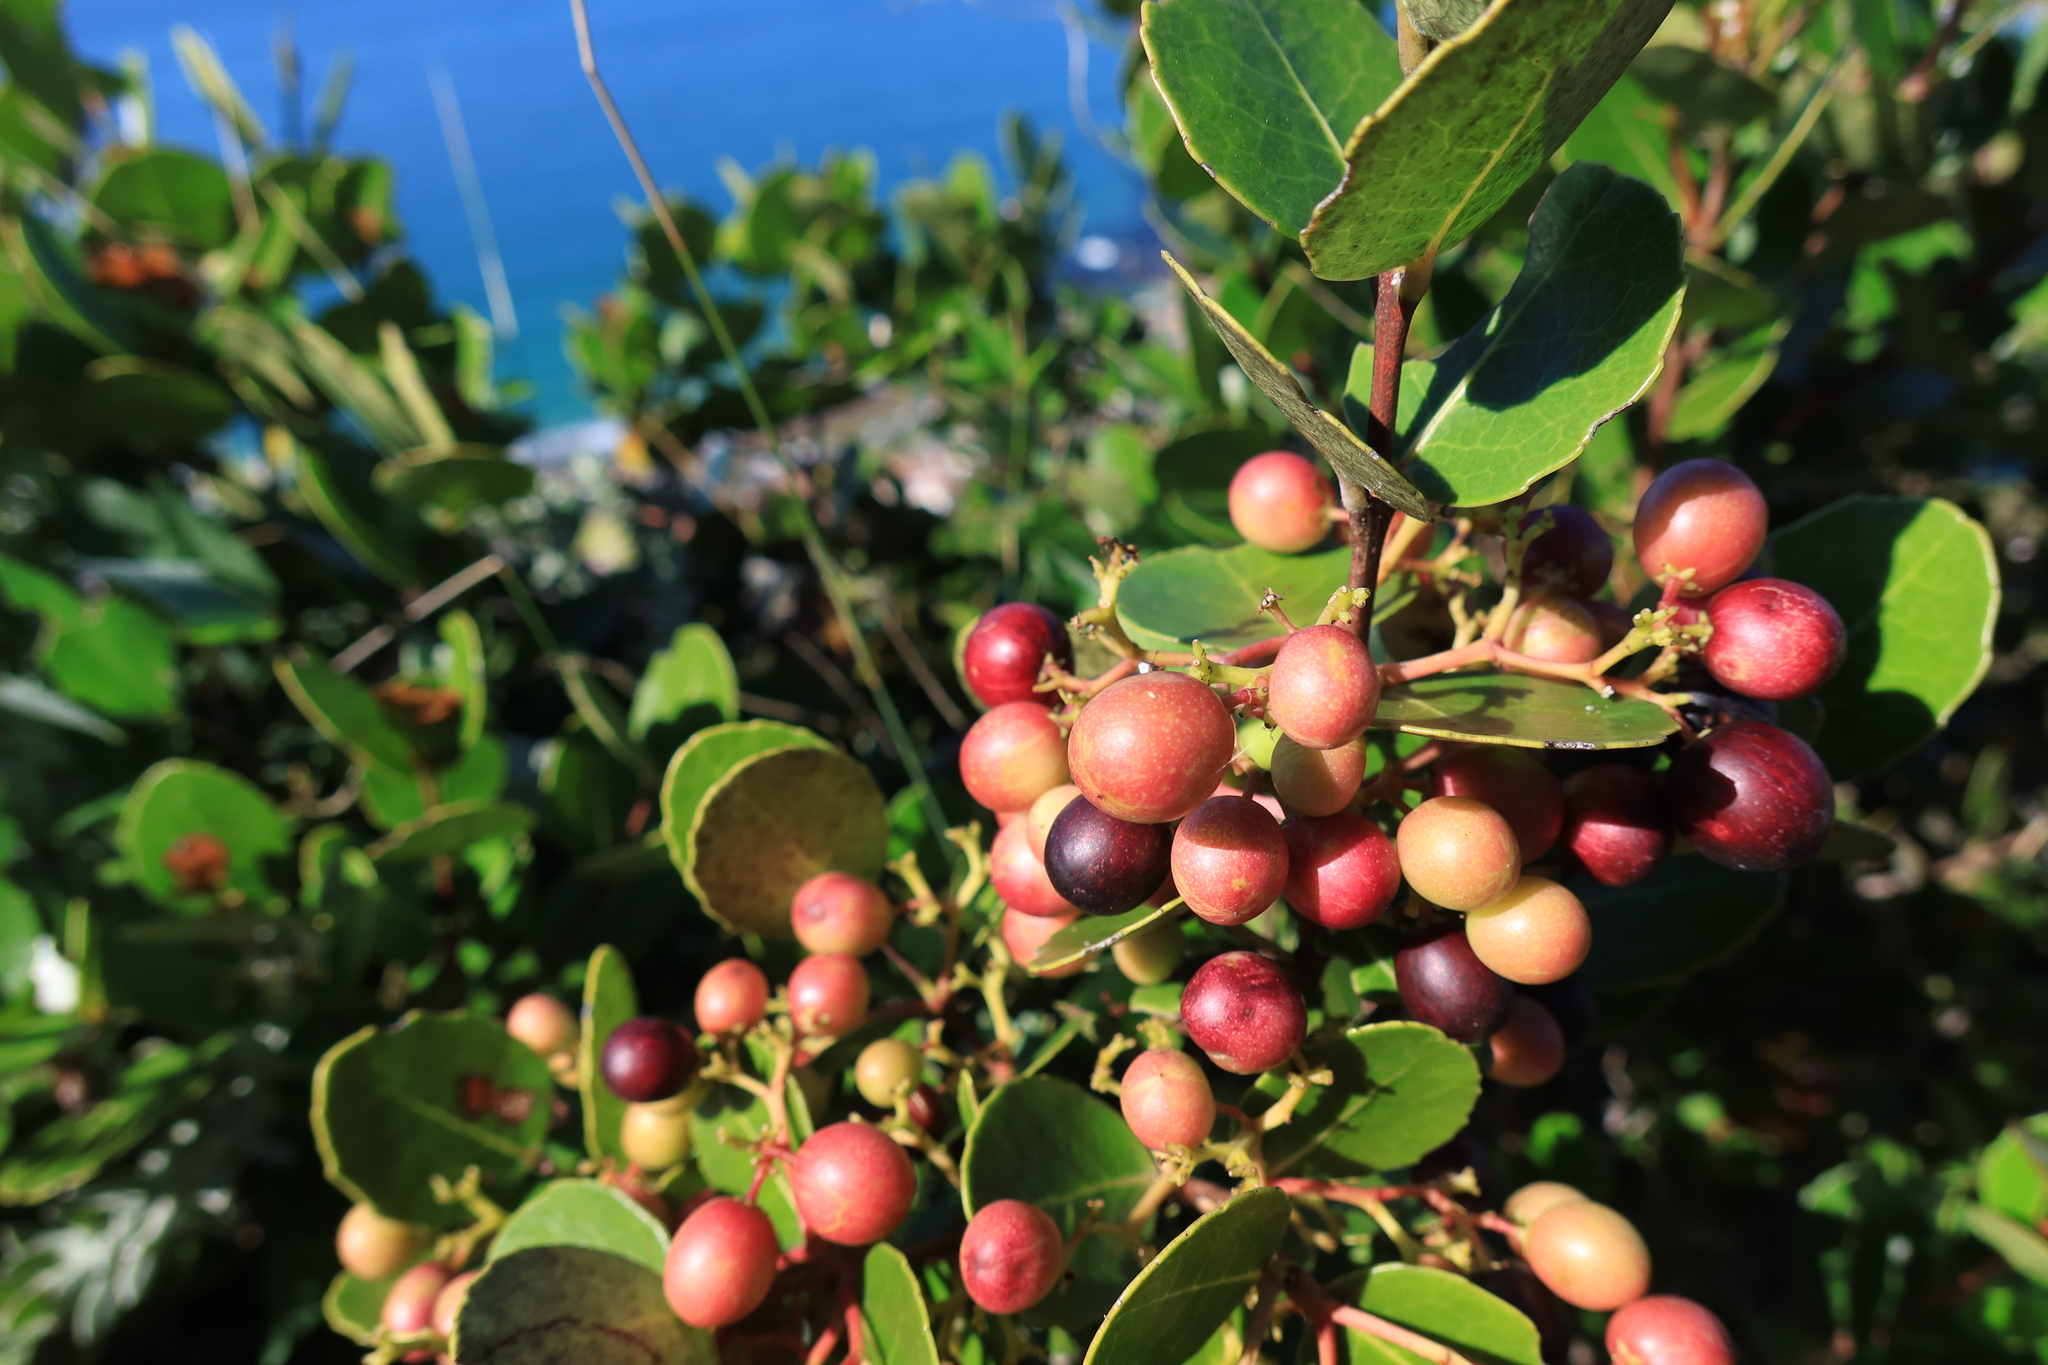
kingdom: Plantae
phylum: Tracheophyta
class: Magnoliopsida
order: Celastrales
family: Celastraceae
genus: Cassine
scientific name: Cassine peragua
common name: Cape saffron
